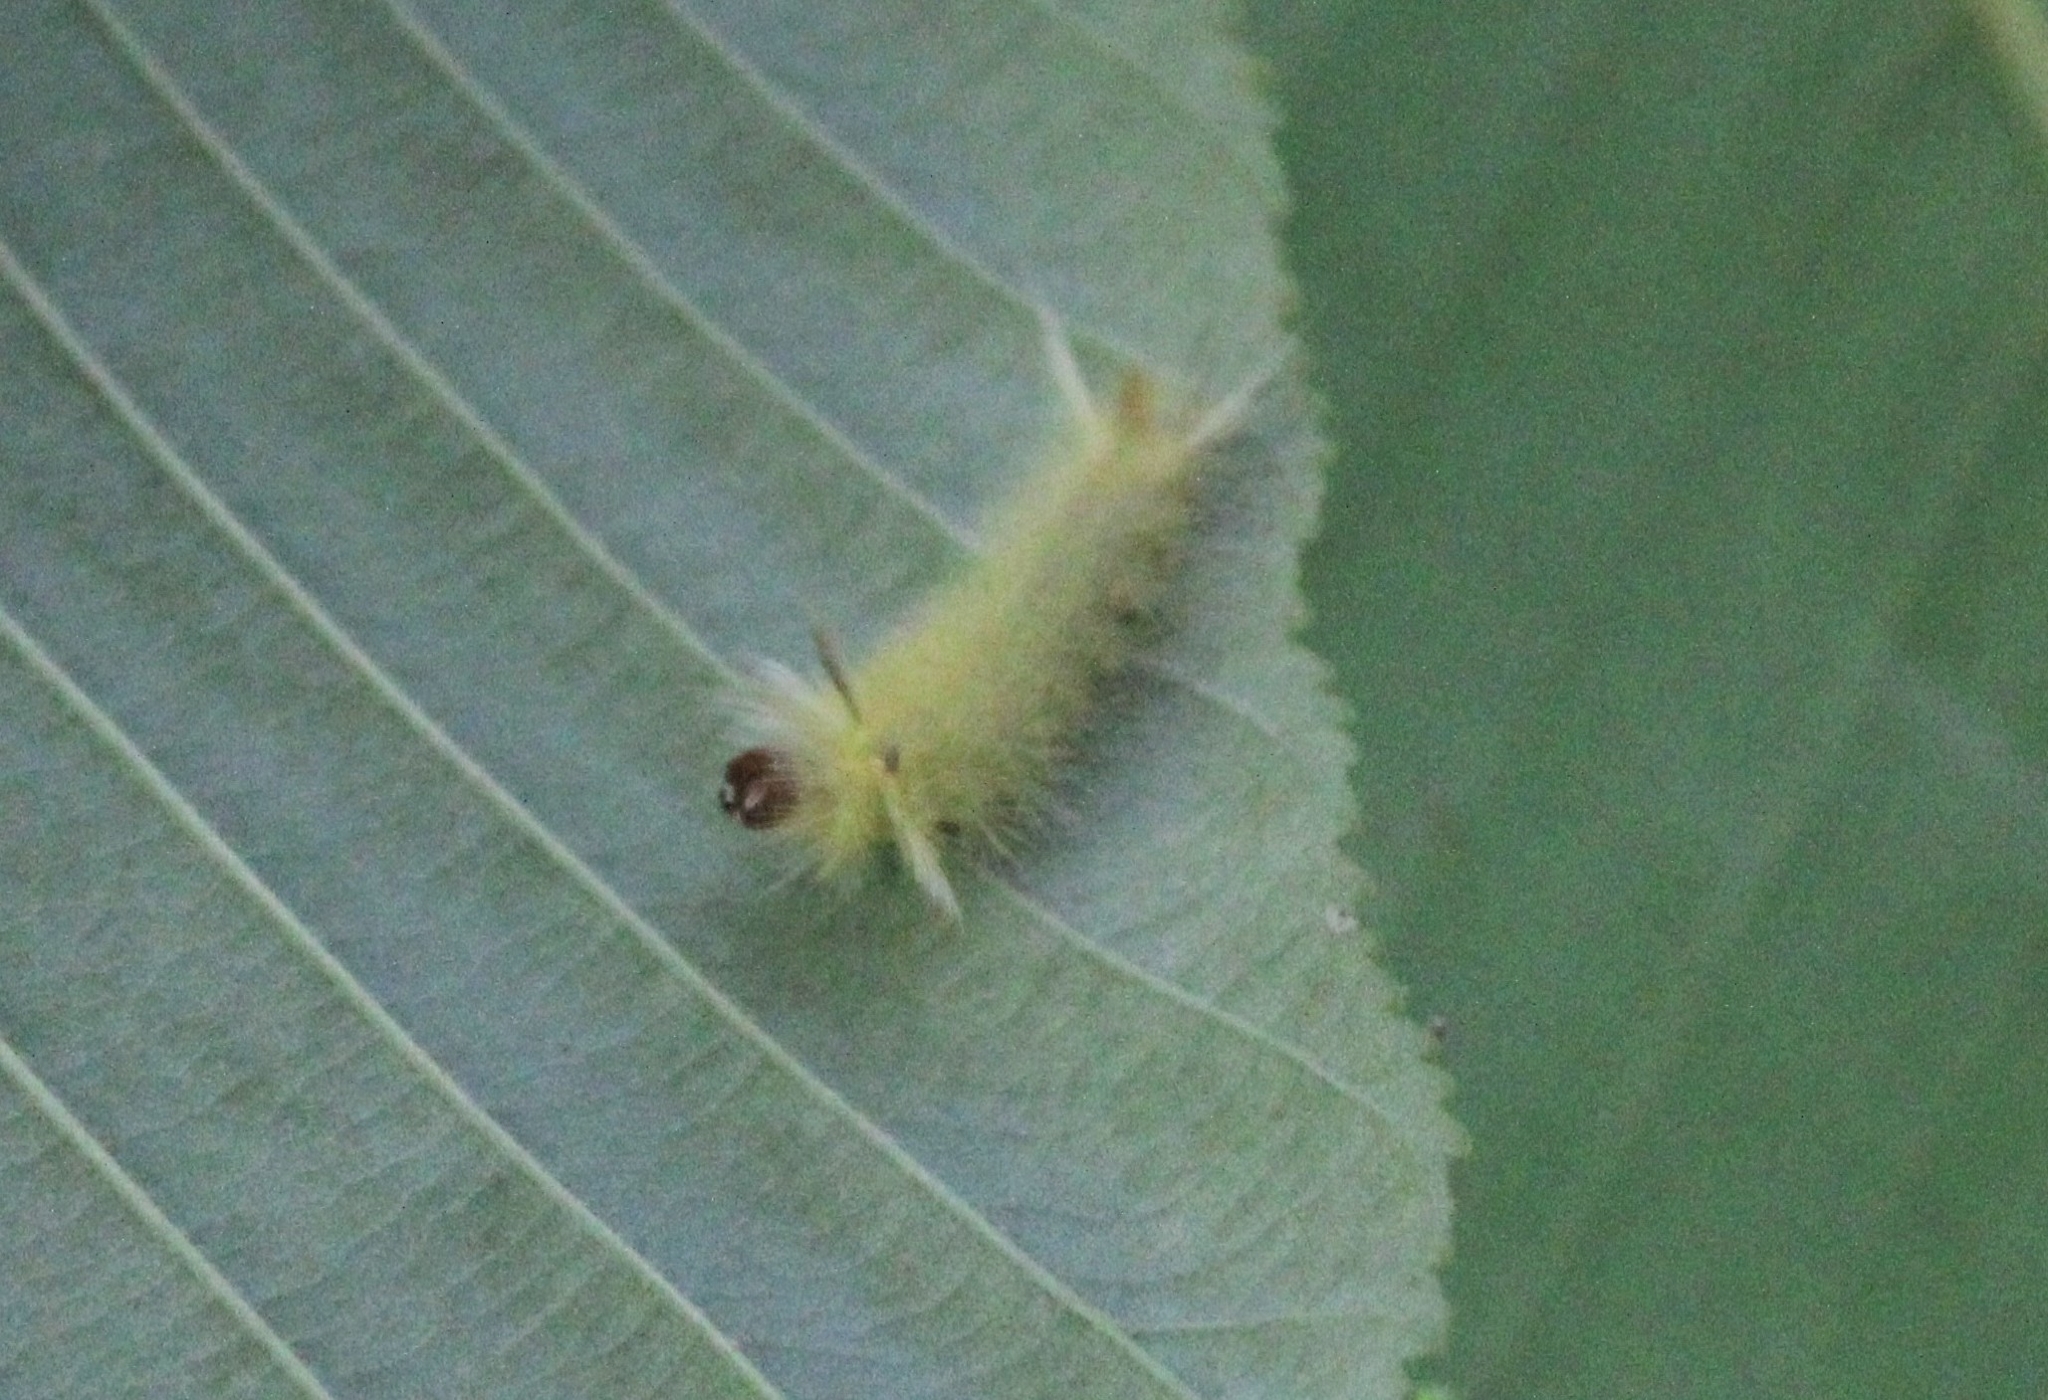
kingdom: Animalia
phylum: Arthropoda
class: Insecta
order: Lepidoptera
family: Erebidae
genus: Halysidota
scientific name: Halysidota tessellaris
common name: Banded tussock moth
